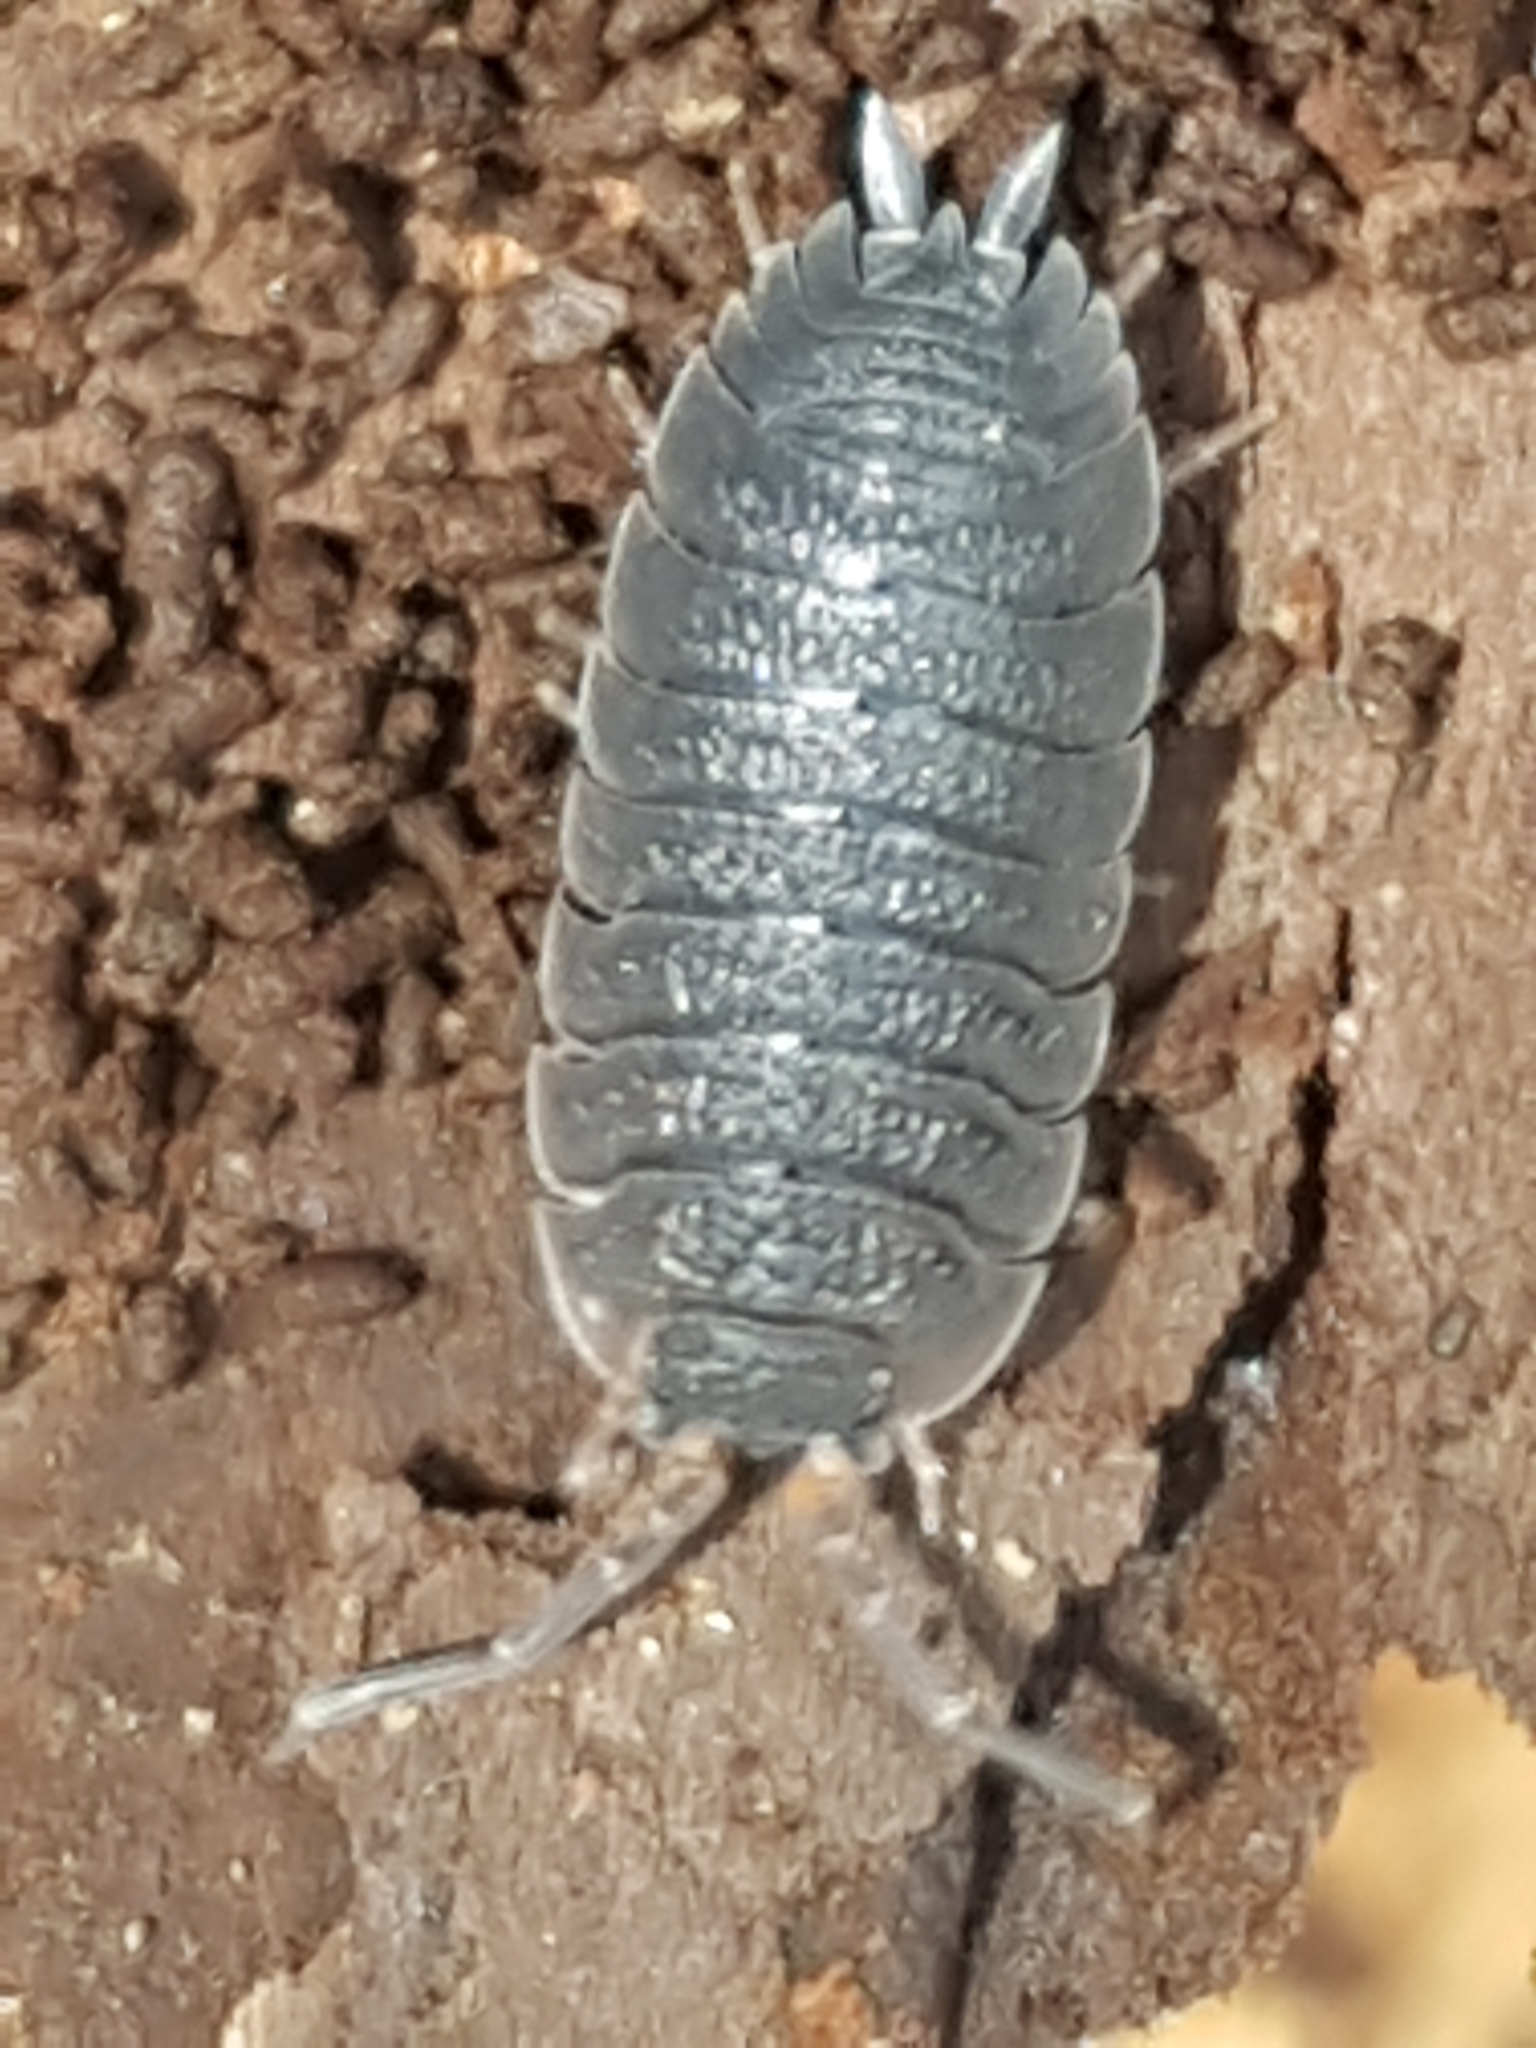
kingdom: Animalia
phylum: Arthropoda
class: Malacostraca
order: Isopoda
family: Porcellionidae
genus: Porcellio
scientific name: Porcellio scaber
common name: Common rough woodlouse
